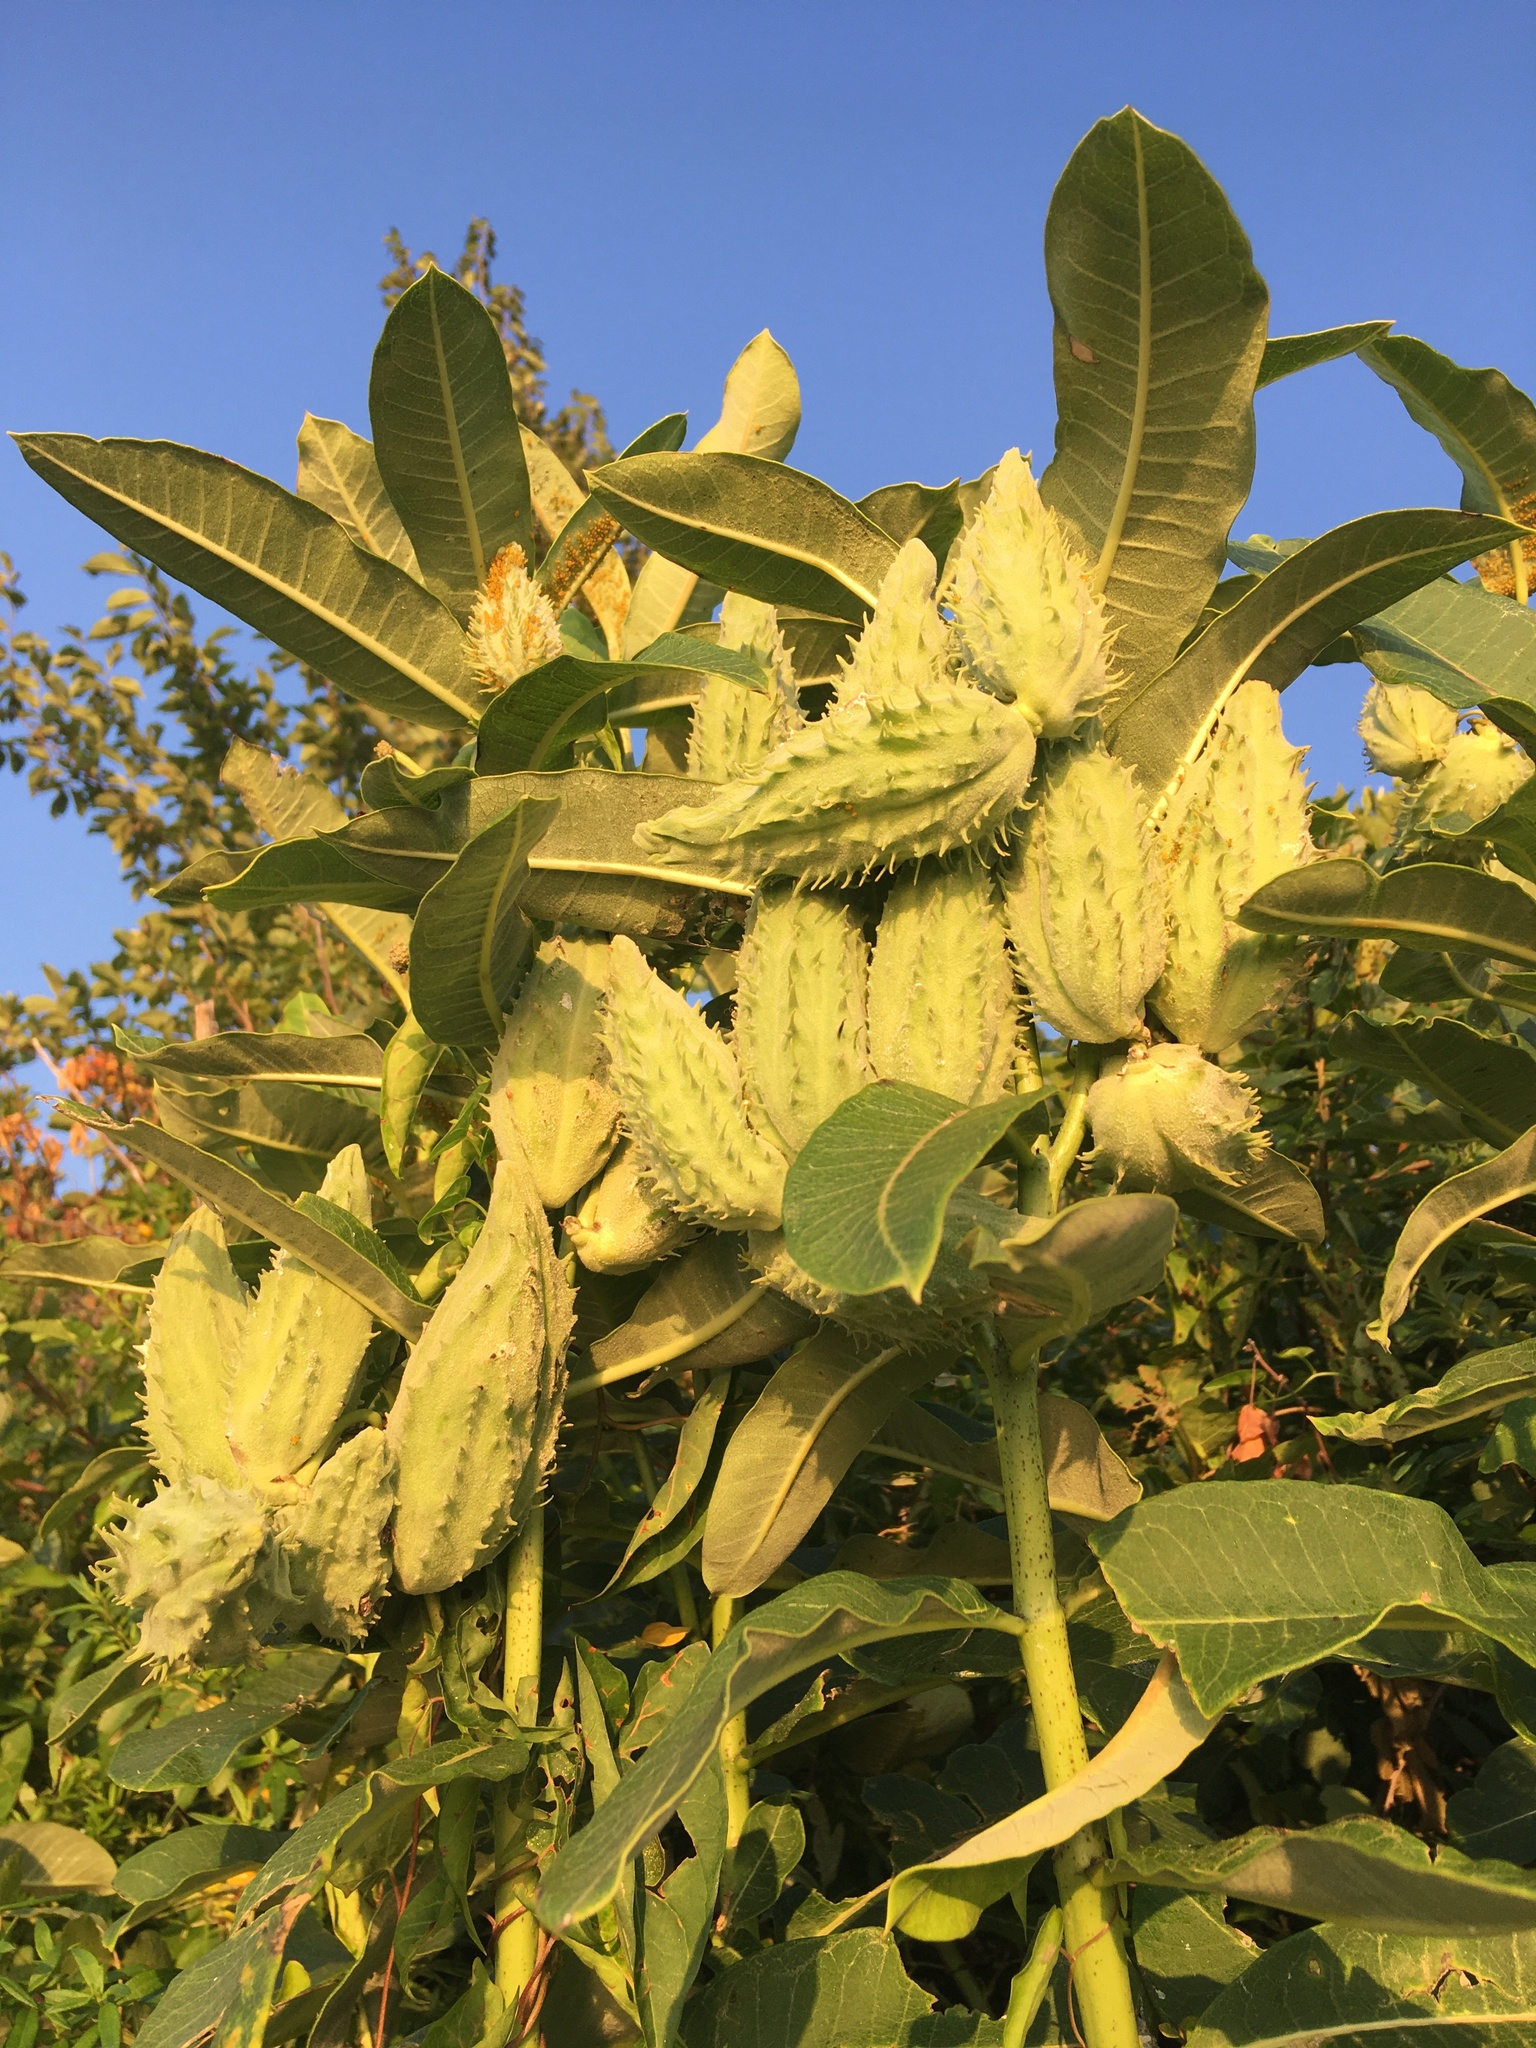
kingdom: Plantae
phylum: Tracheophyta
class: Magnoliopsida
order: Gentianales
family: Apocynaceae
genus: Asclepias
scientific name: Asclepias syriaca
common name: Common milkweed
